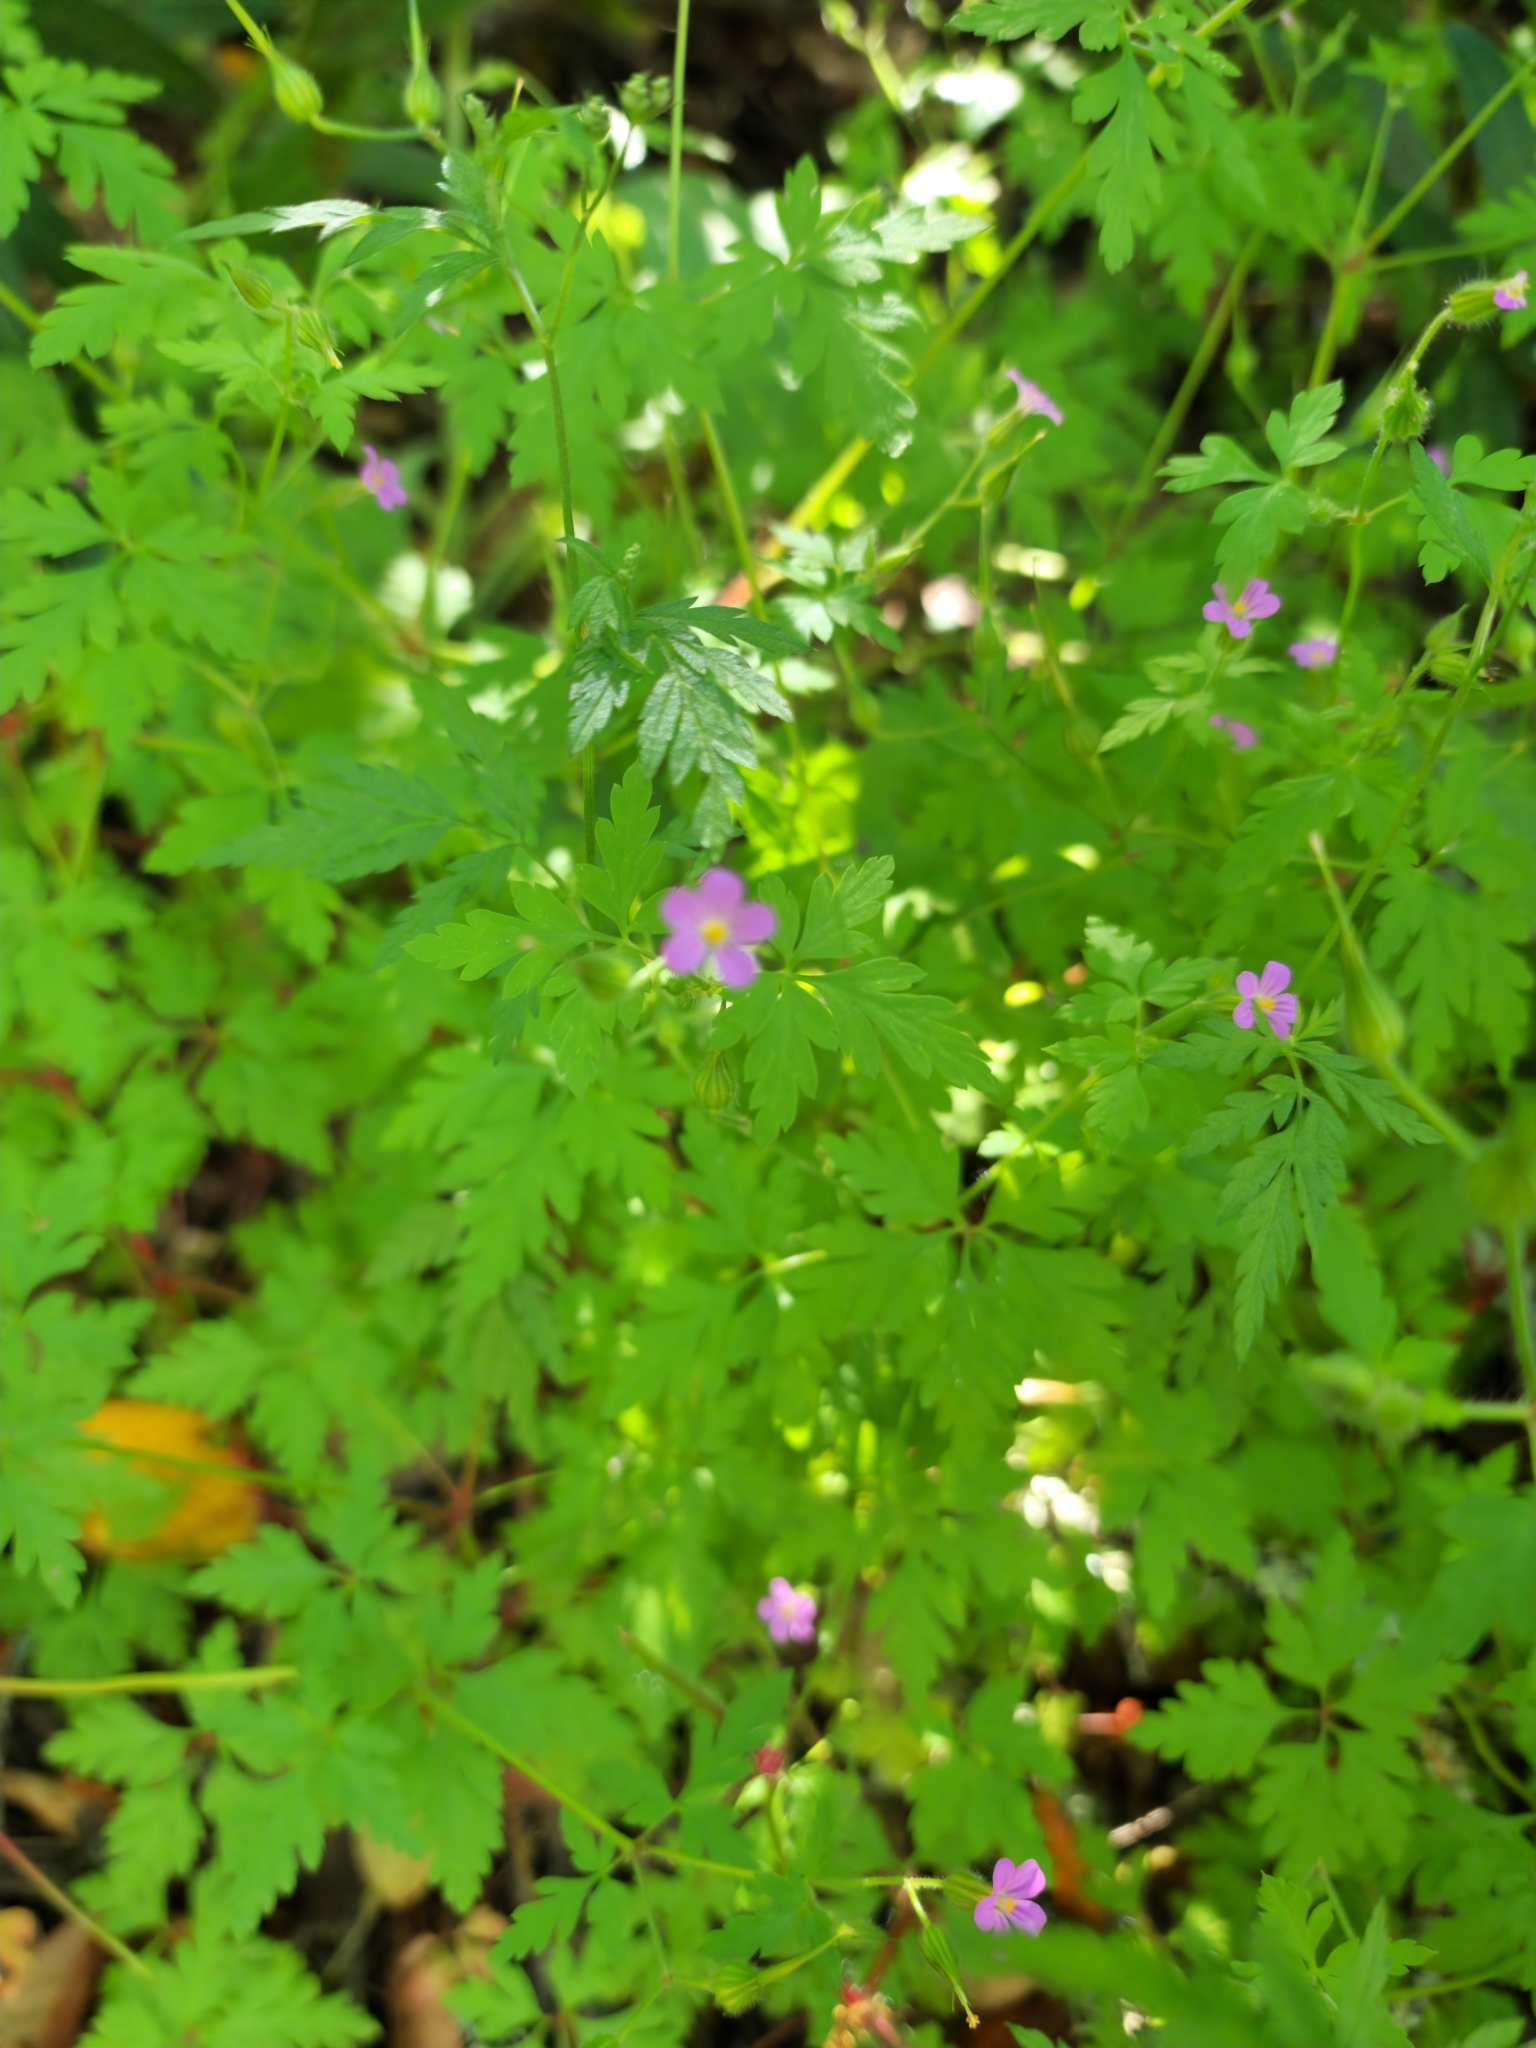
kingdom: Plantae
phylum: Tracheophyta
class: Magnoliopsida
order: Geraniales
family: Geraniaceae
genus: Geranium
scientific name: Geranium purpureum
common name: Little-robin
